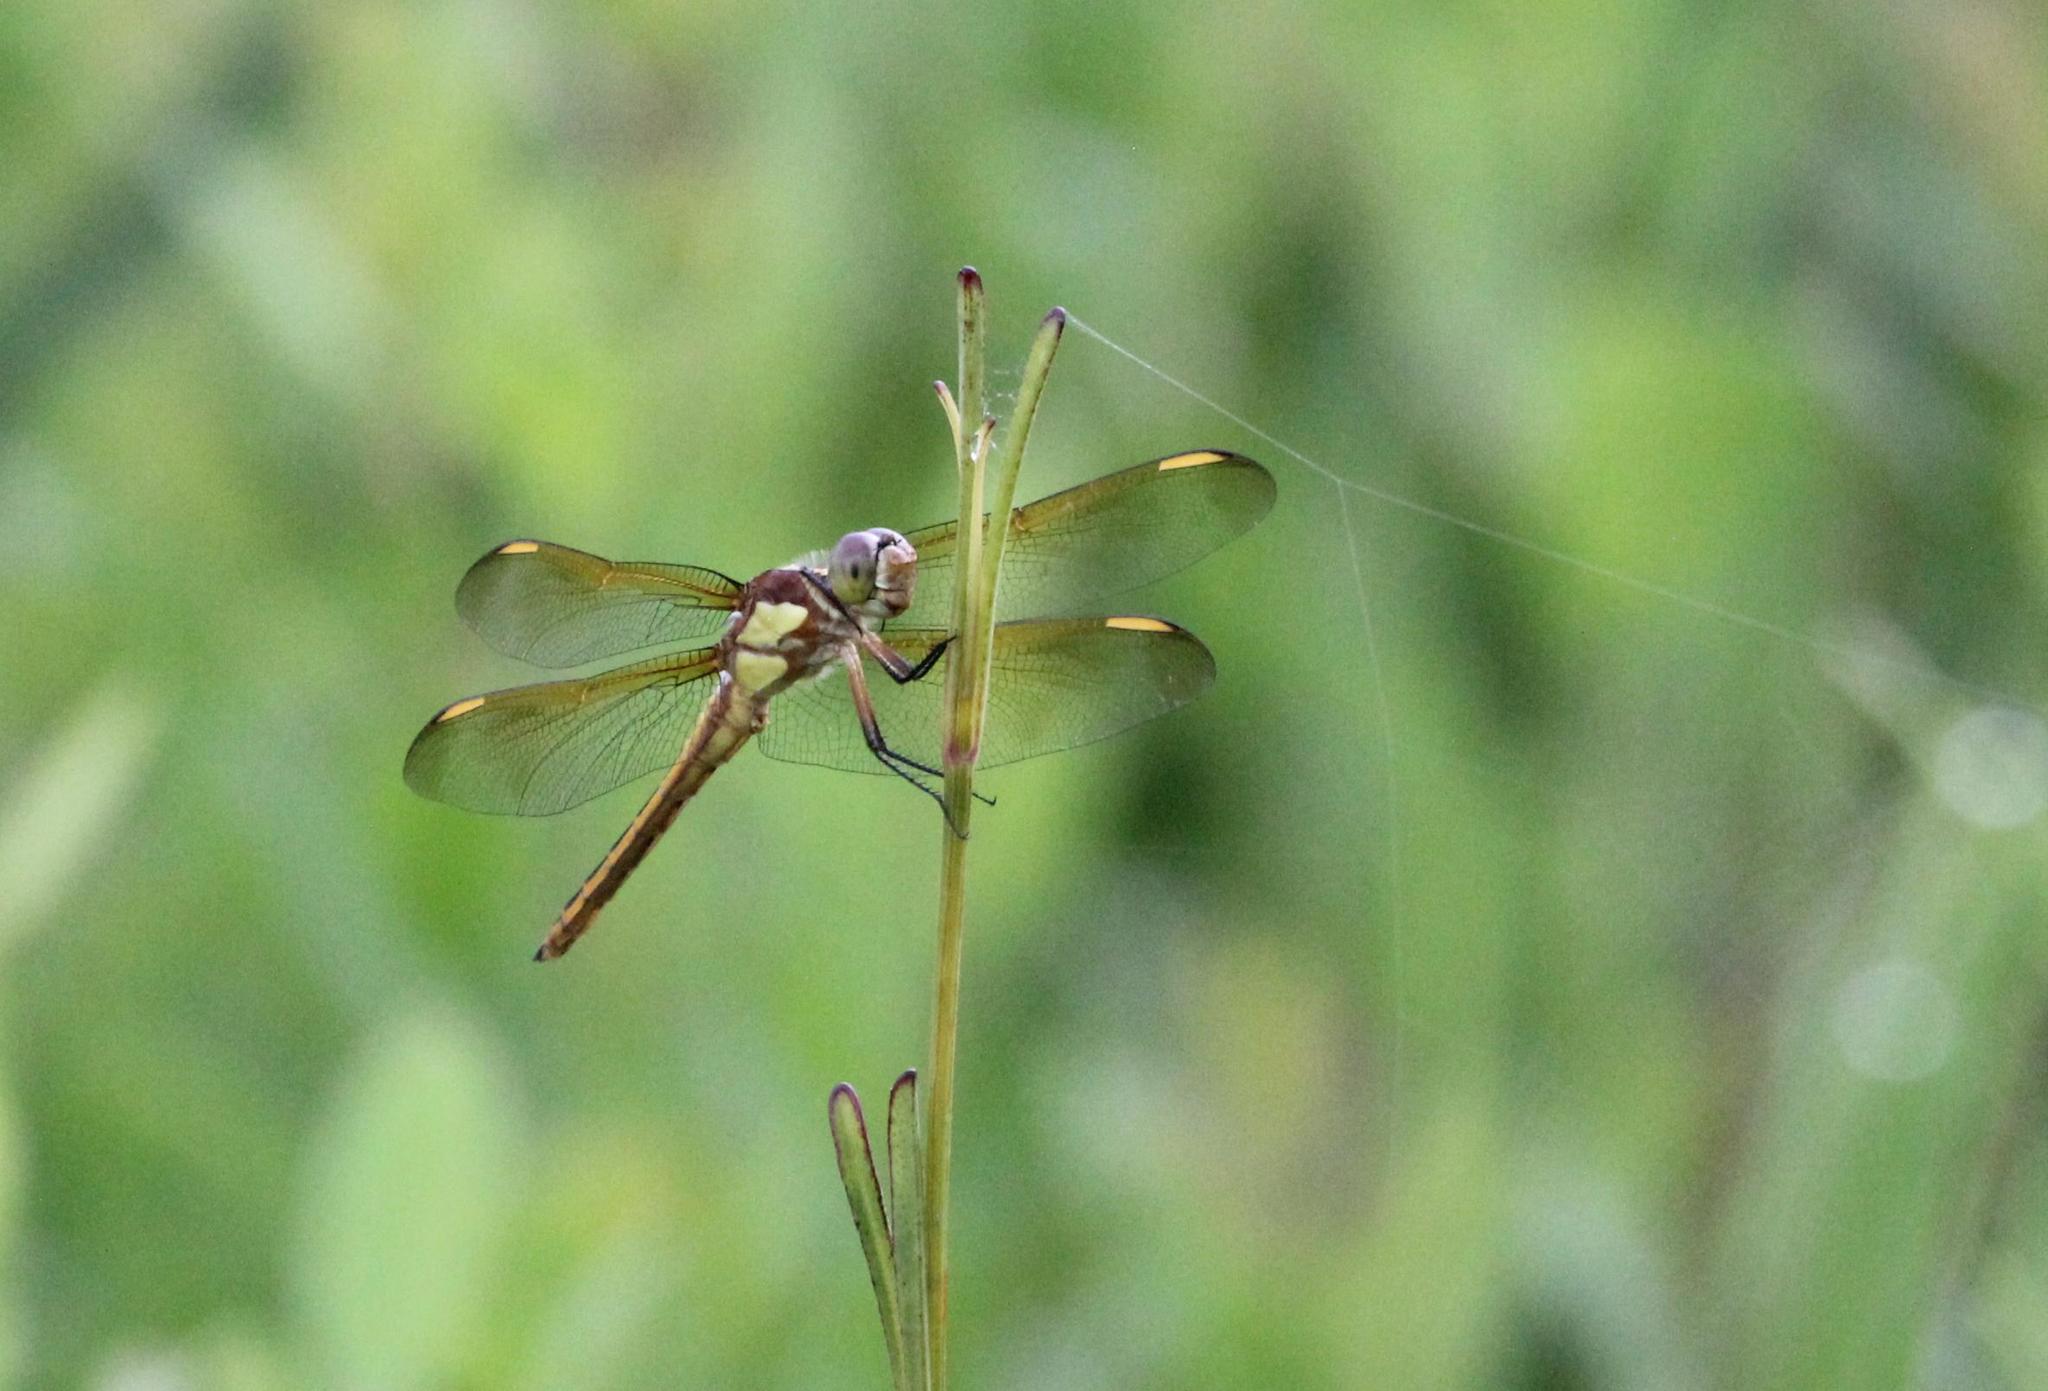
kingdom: Animalia
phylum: Arthropoda
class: Insecta
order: Odonata
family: Libellulidae
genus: Libellula
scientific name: Libellula flavida
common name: Yellow-sided skimmer
